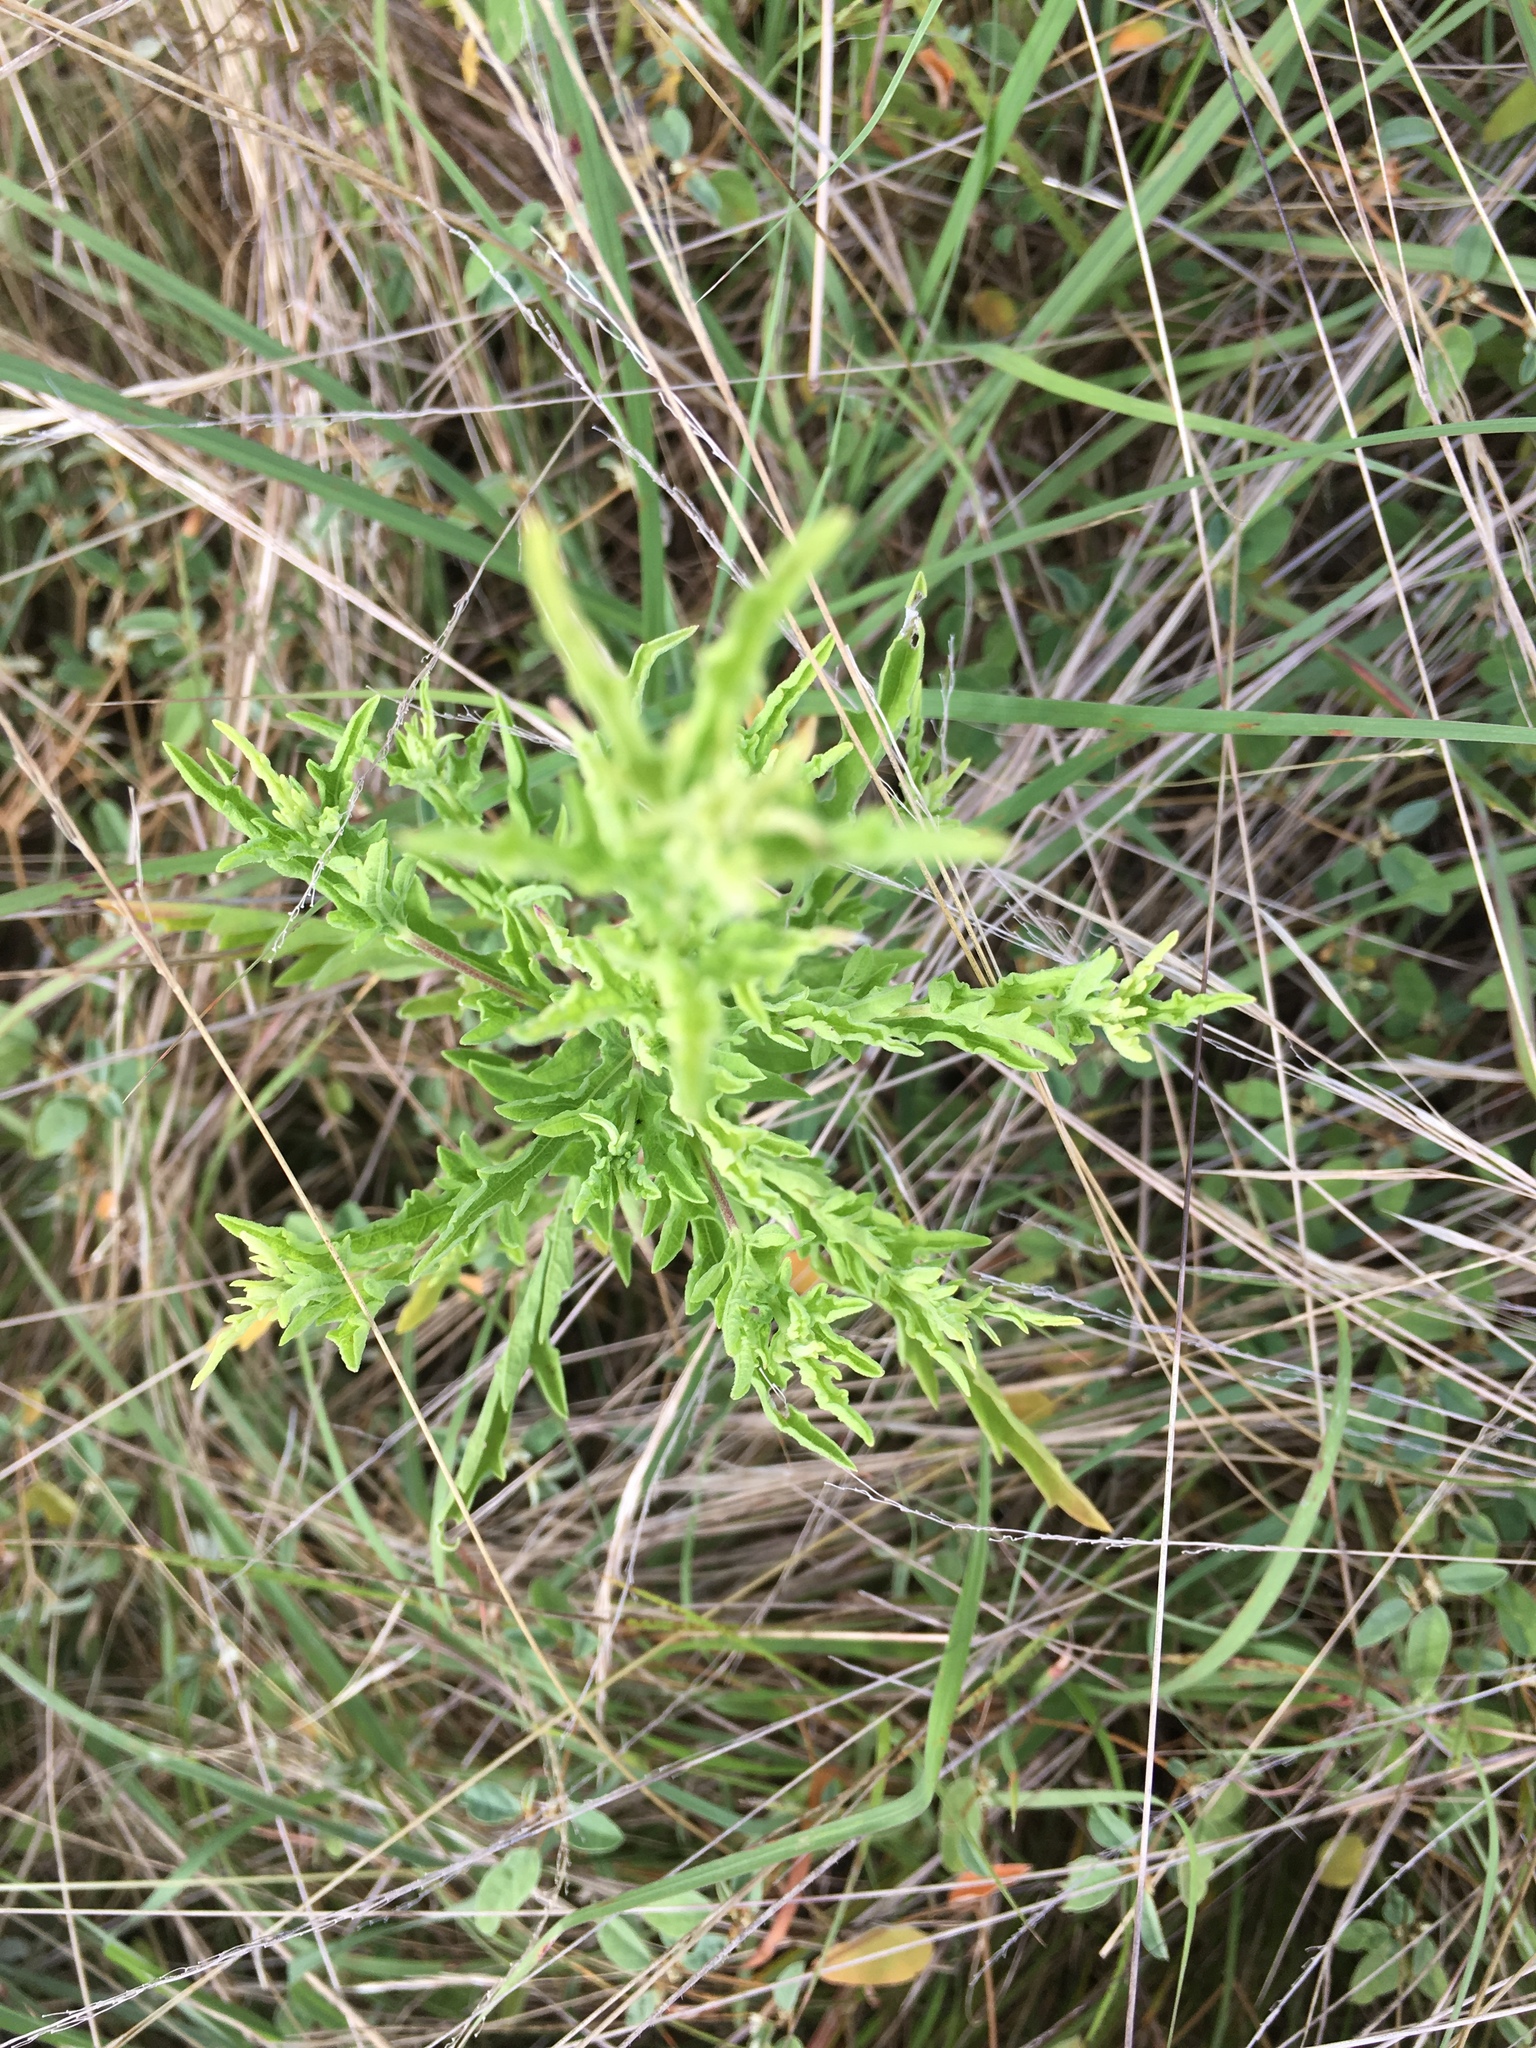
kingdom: Plantae
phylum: Tracheophyta
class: Magnoliopsida
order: Asterales
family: Asteraceae
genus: Ambrosia
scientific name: Ambrosia psilostachya
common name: Perennial ragweed
